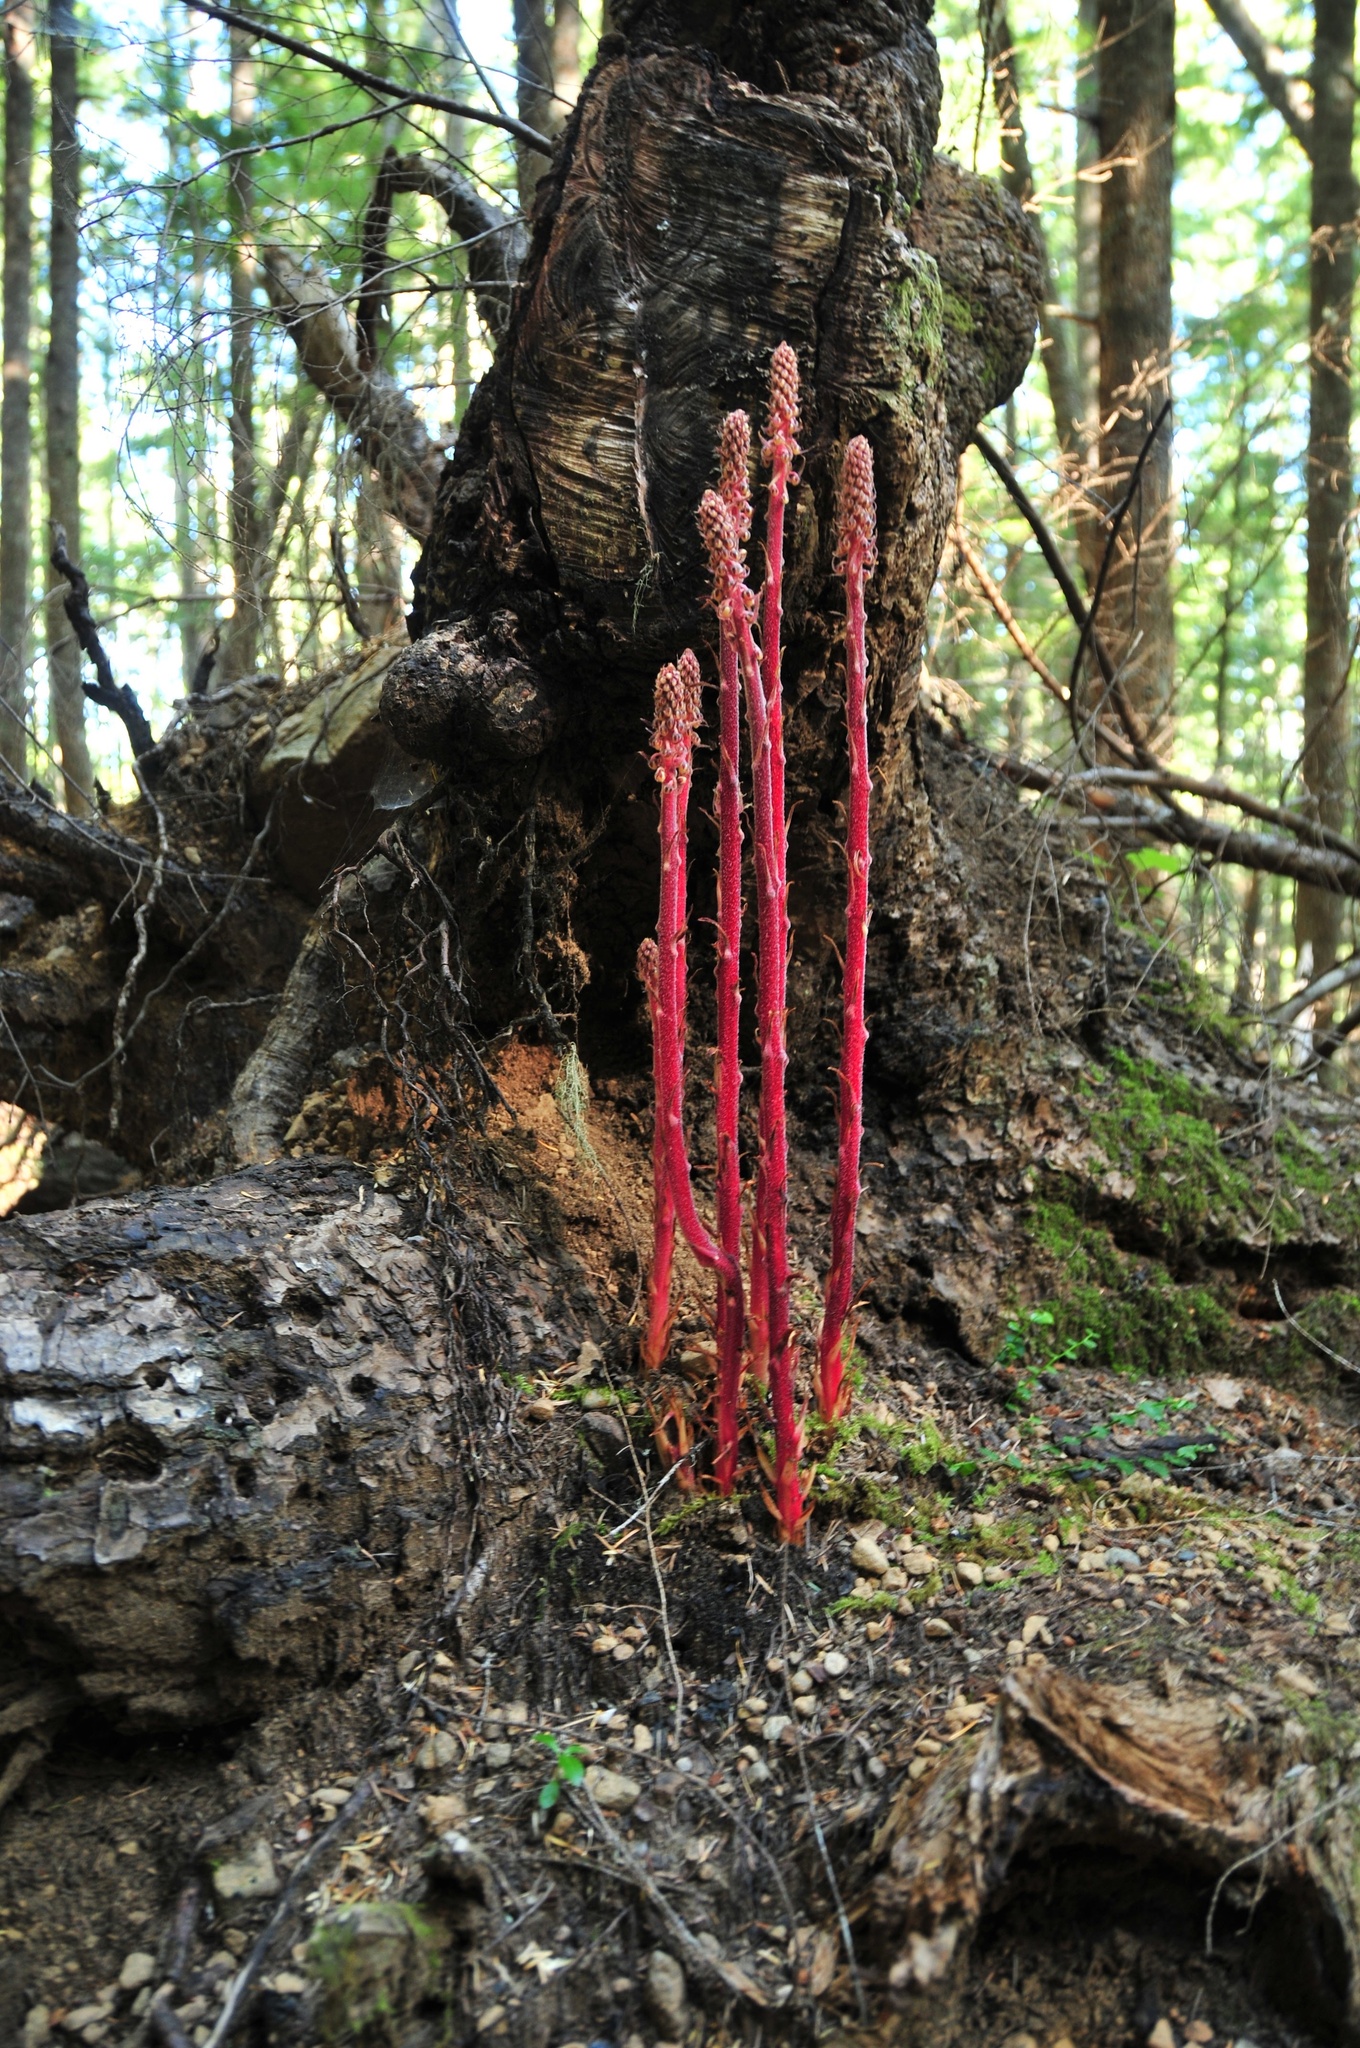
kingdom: Plantae
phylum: Tracheophyta
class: Magnoliopsida
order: Ericales
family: Ericaceae
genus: Pterospora
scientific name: Pterospora andromedea
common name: Giant bird's-nest
